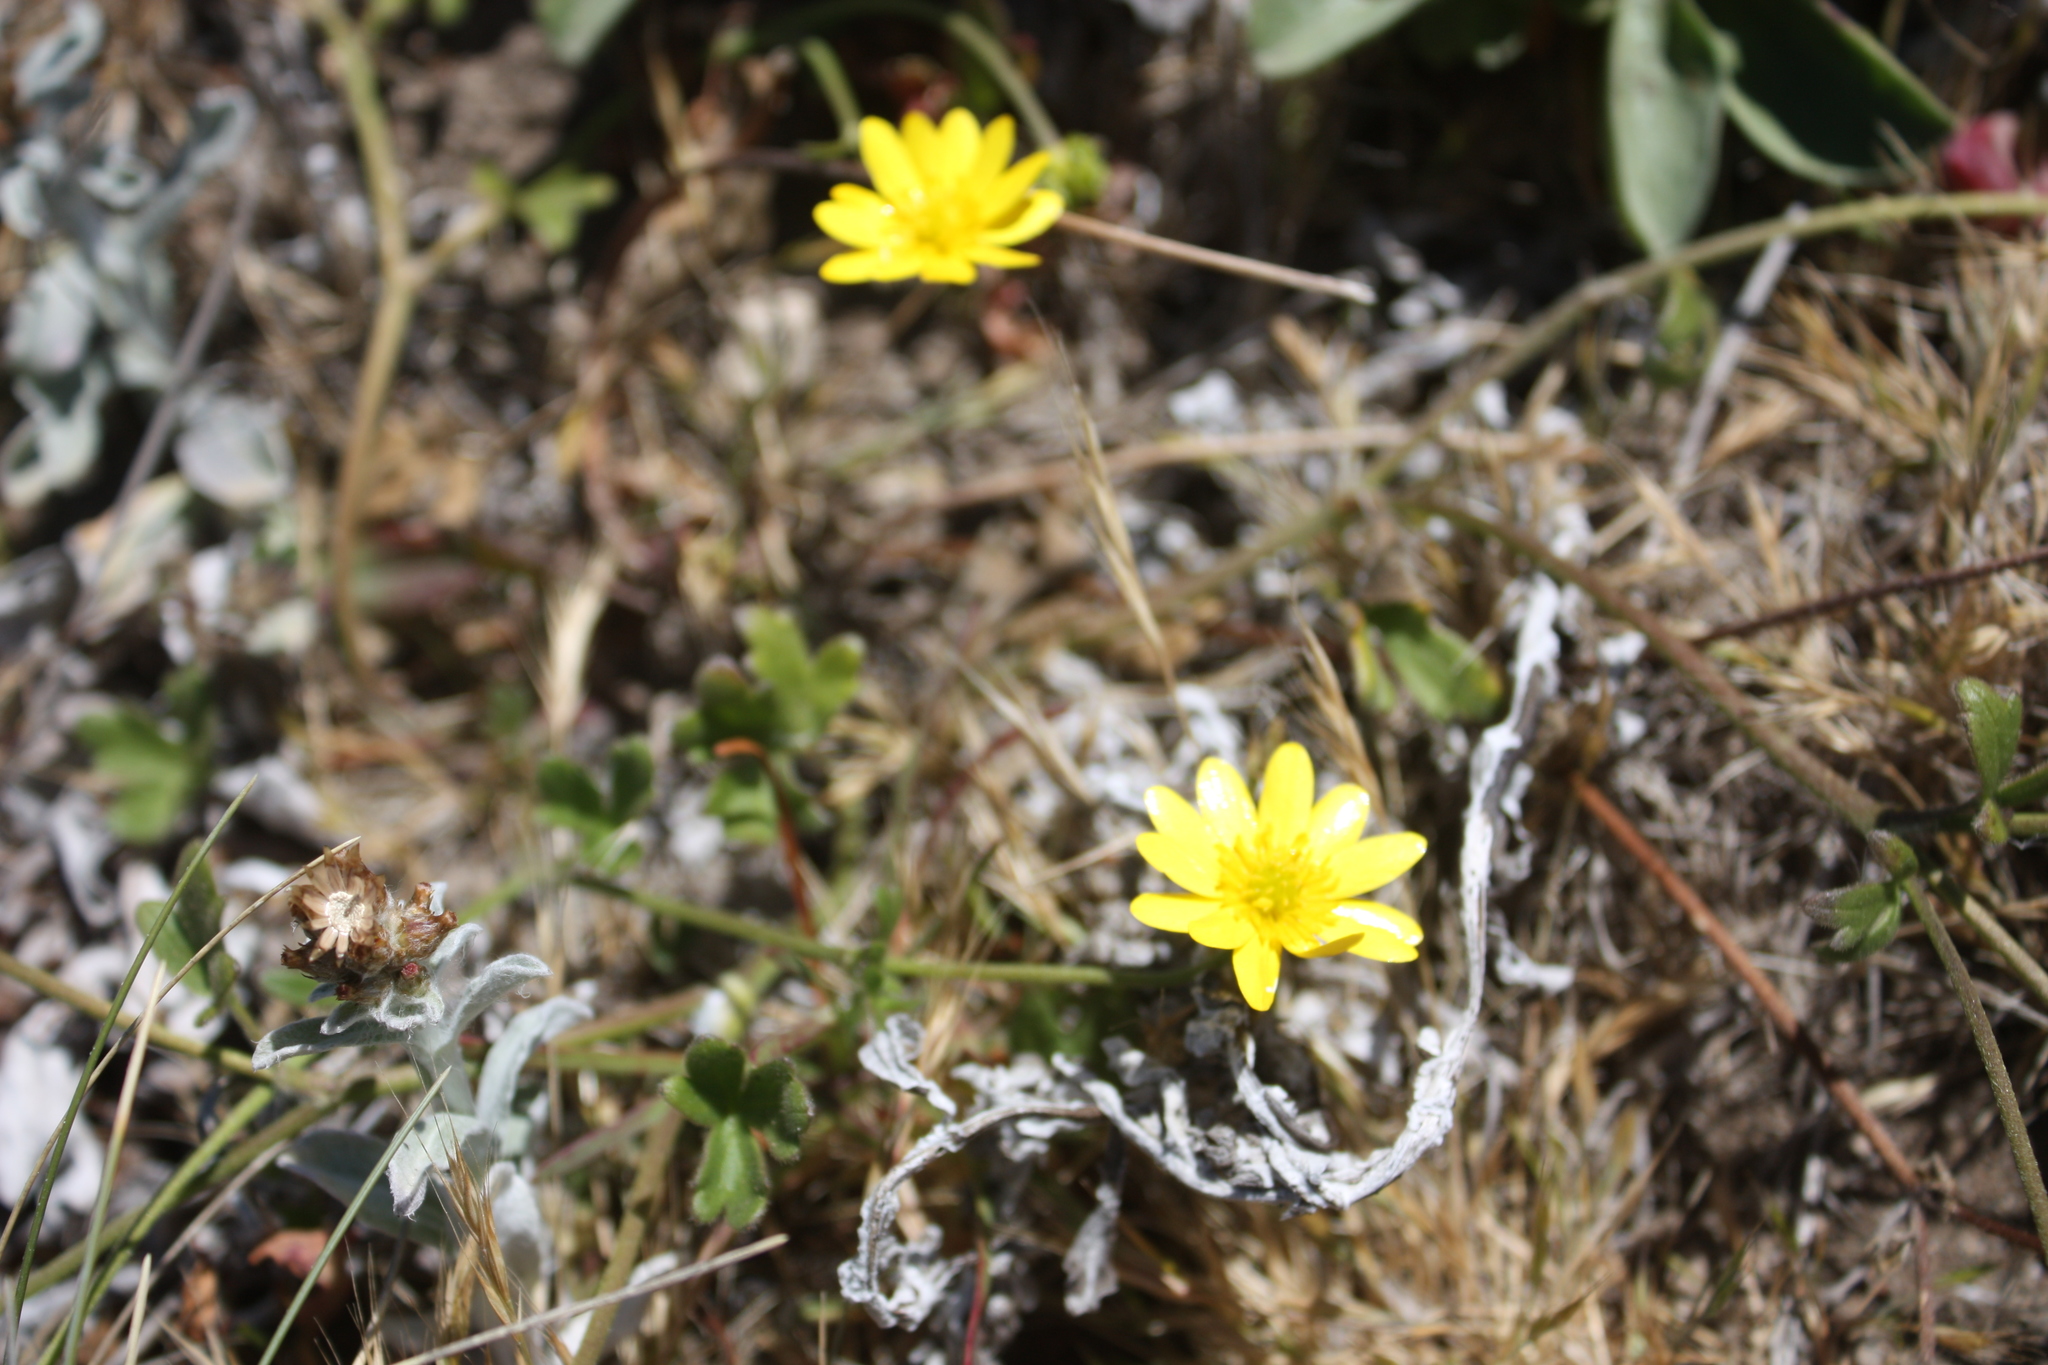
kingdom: Plantae
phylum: Tracheophyta
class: Magnoliopsida
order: Ranunculales
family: Ranunculaceae
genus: Ranunculus
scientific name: Ranunculus californicus
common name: California buttercup
